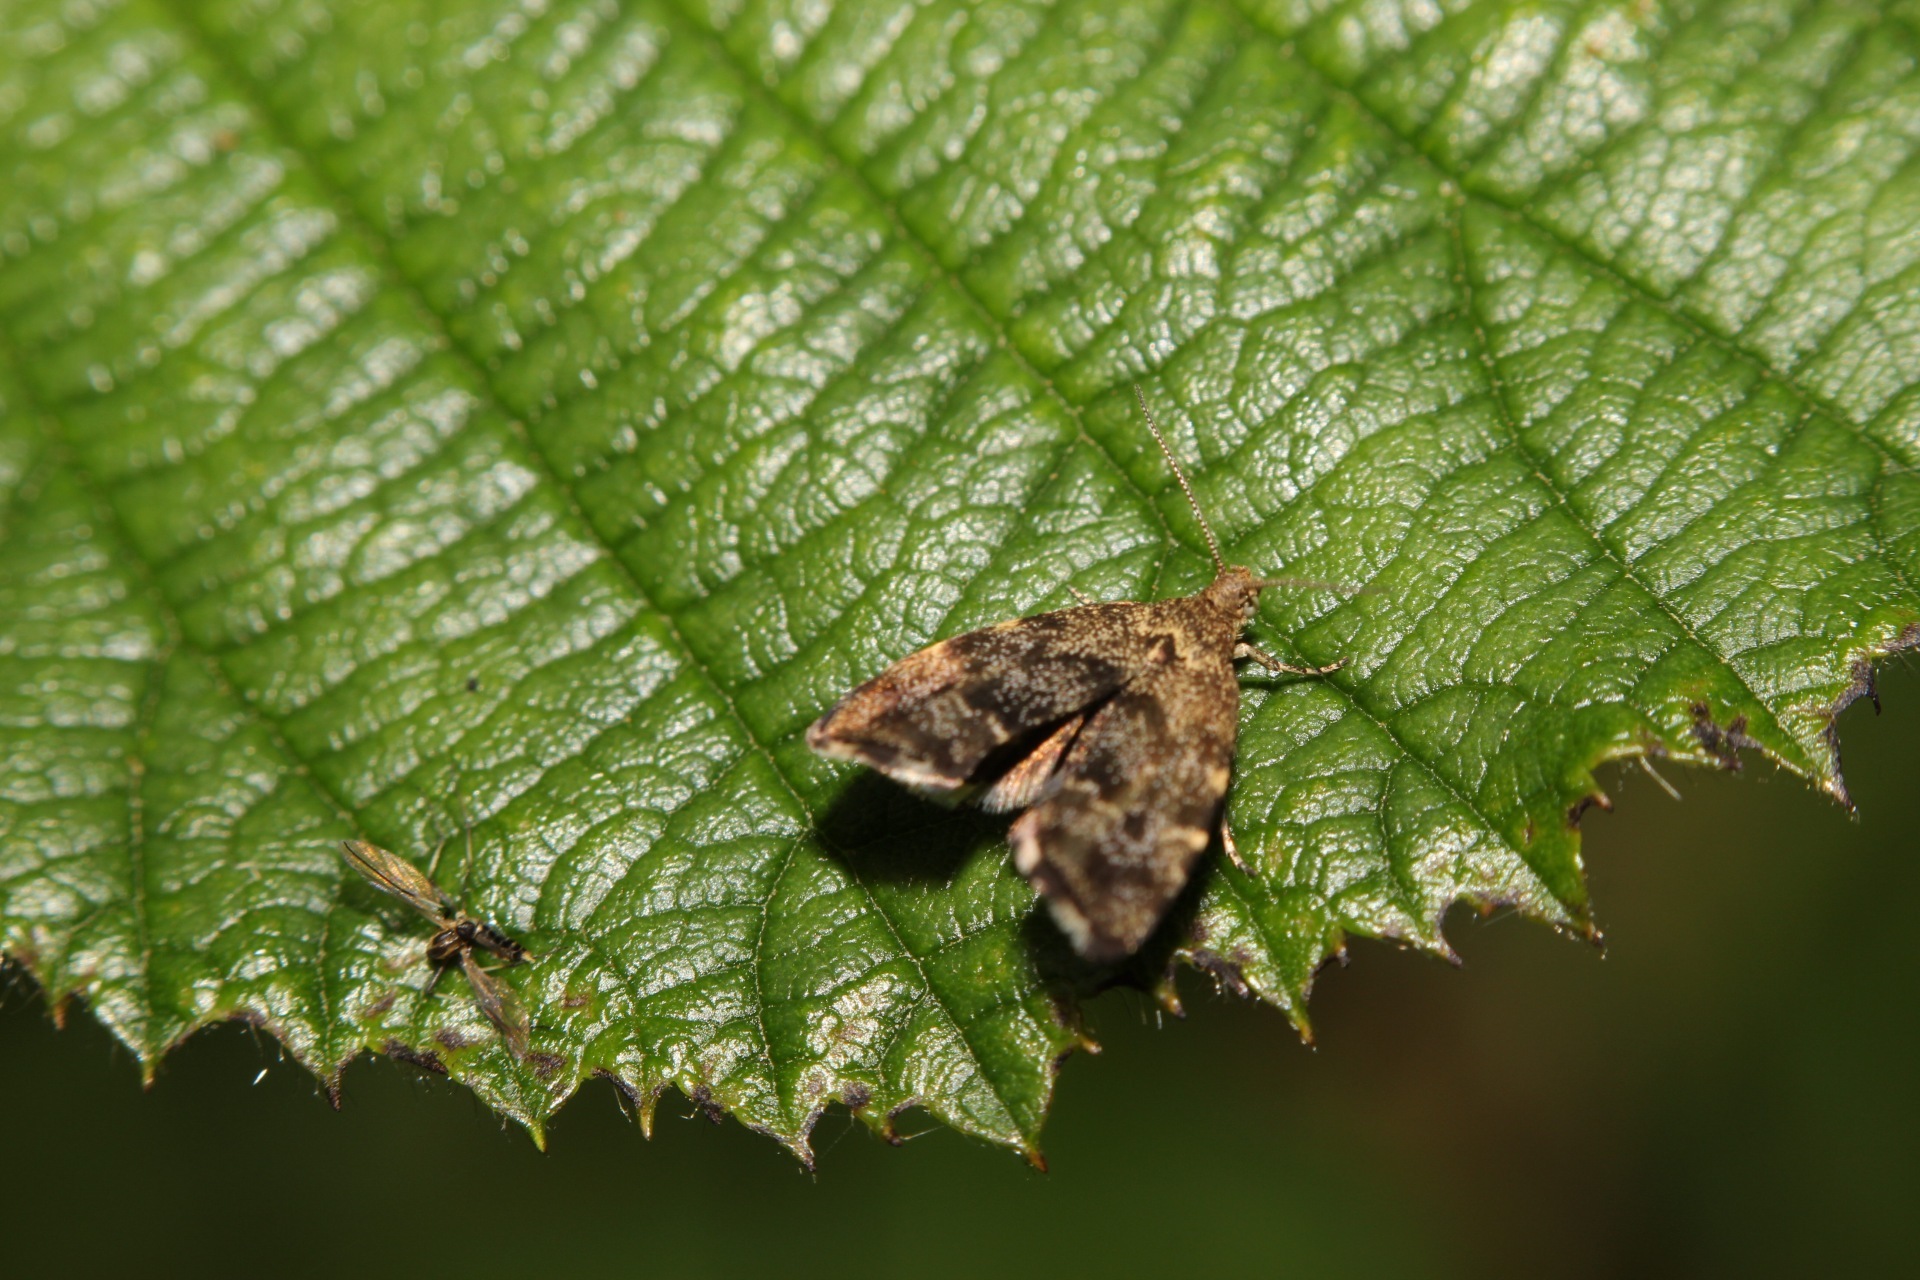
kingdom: Animalia
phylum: Arthropoda
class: Insecta
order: Lepidoptera
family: Choreutidae
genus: Anthophila
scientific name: Anthophila fabriciana
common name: Nettle-tap
